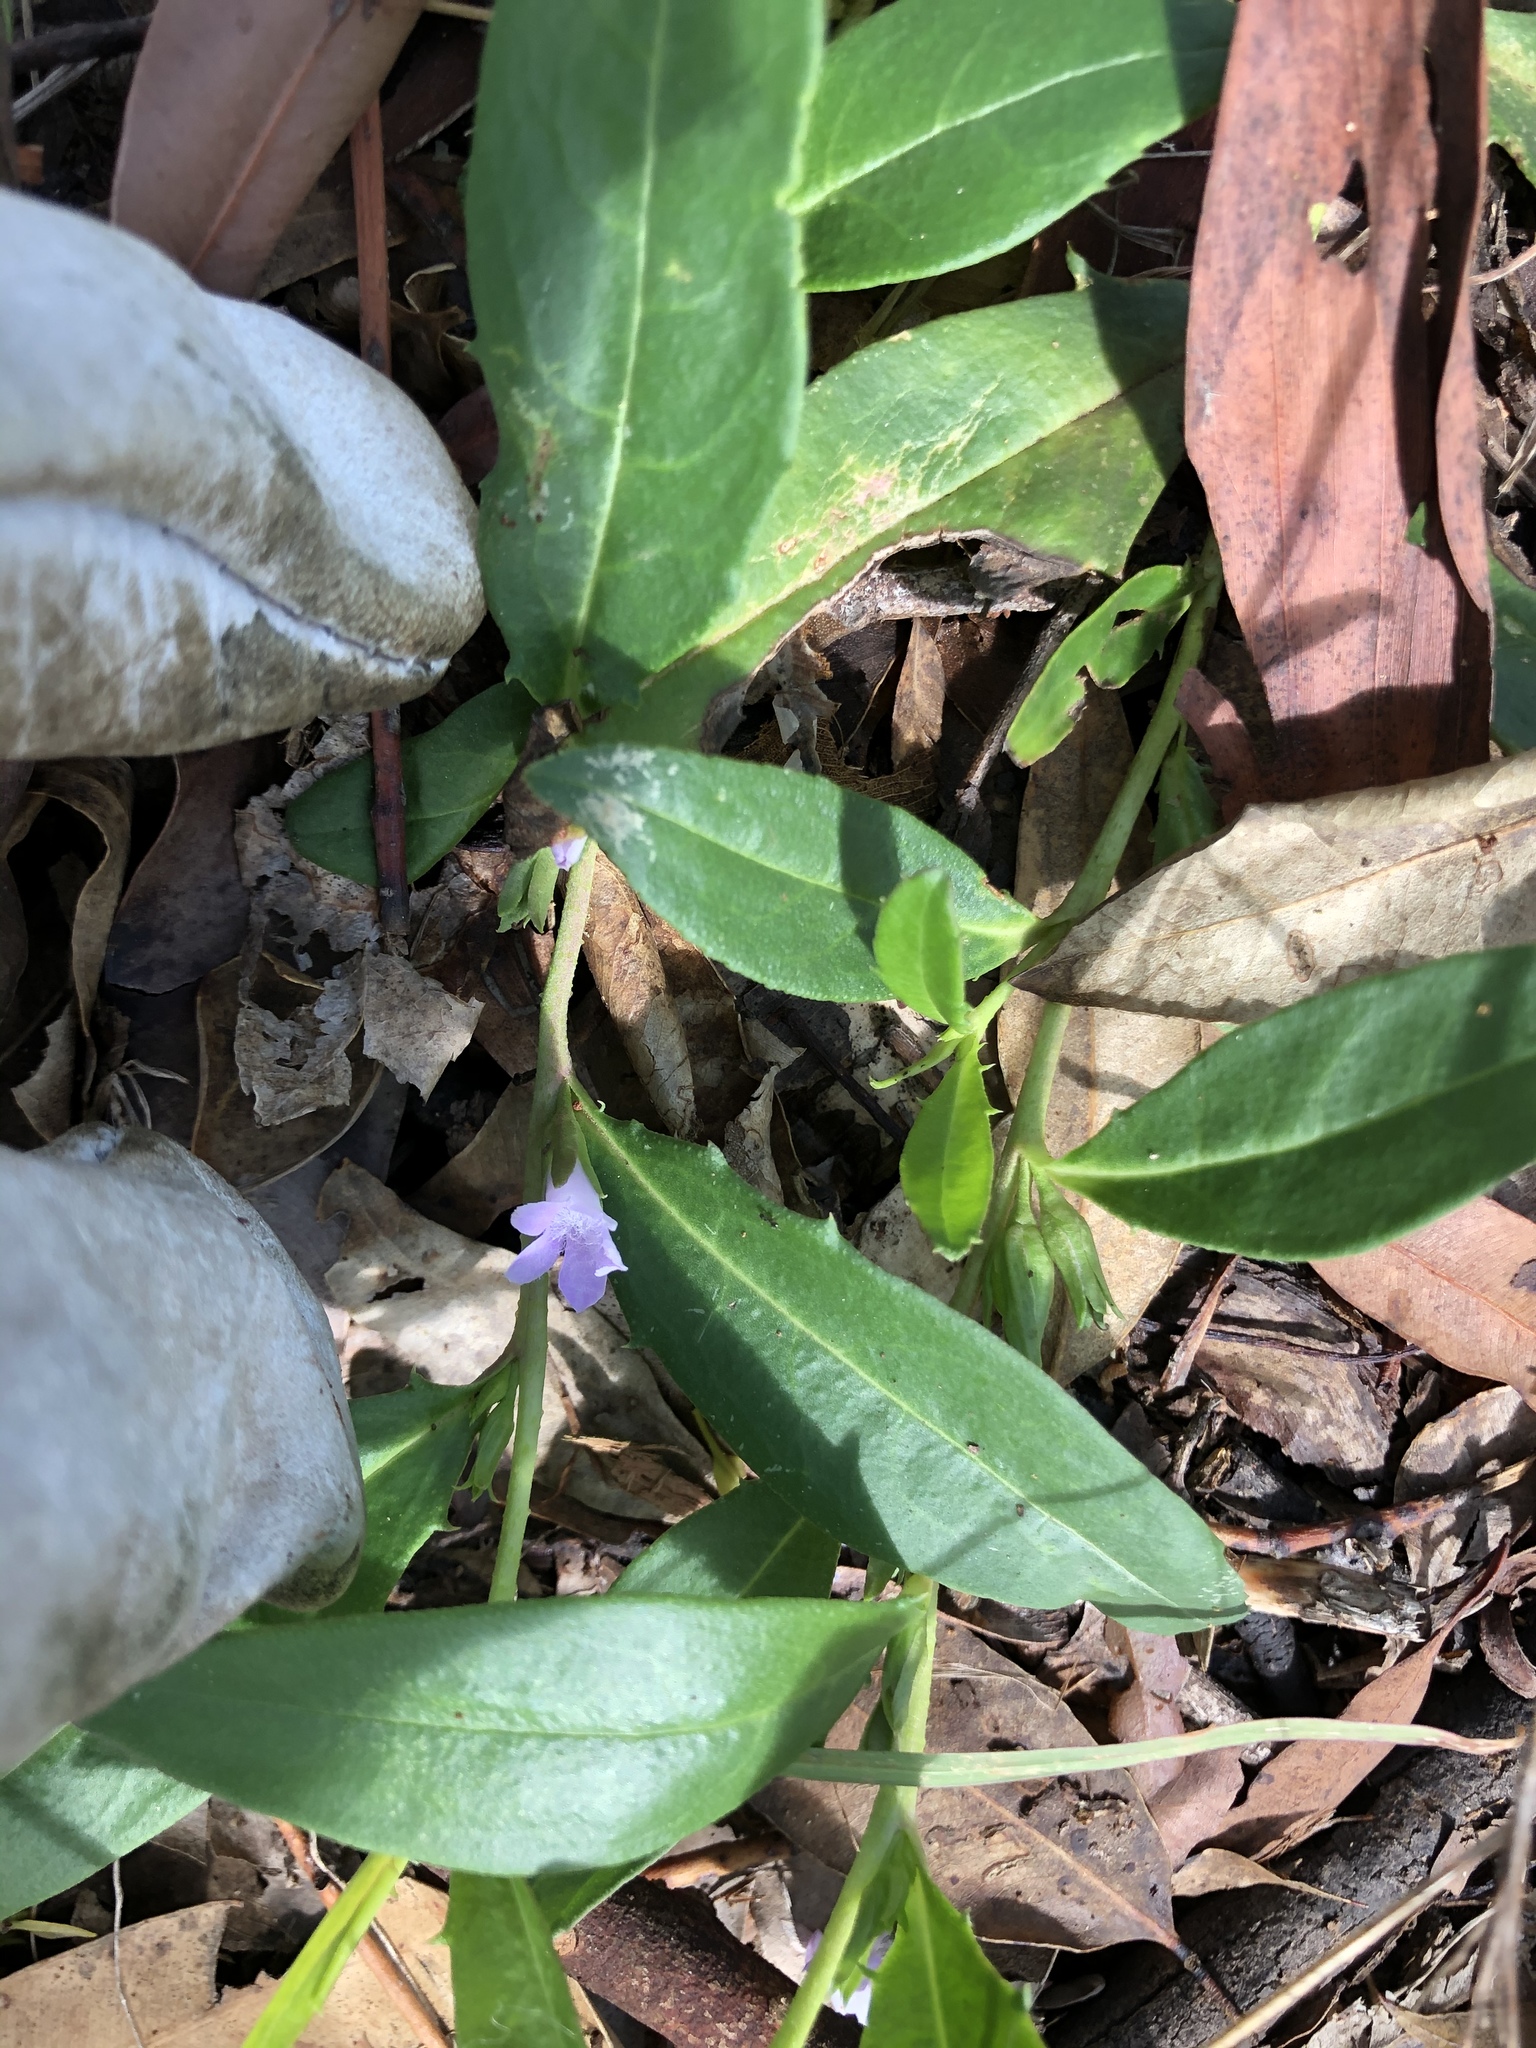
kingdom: Plantae
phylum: Tracheophyta
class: Magnoliopsida
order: Lamiales
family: Scrophulariaceae
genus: Eremophila
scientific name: Eremophila debilis
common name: Winter-apple
